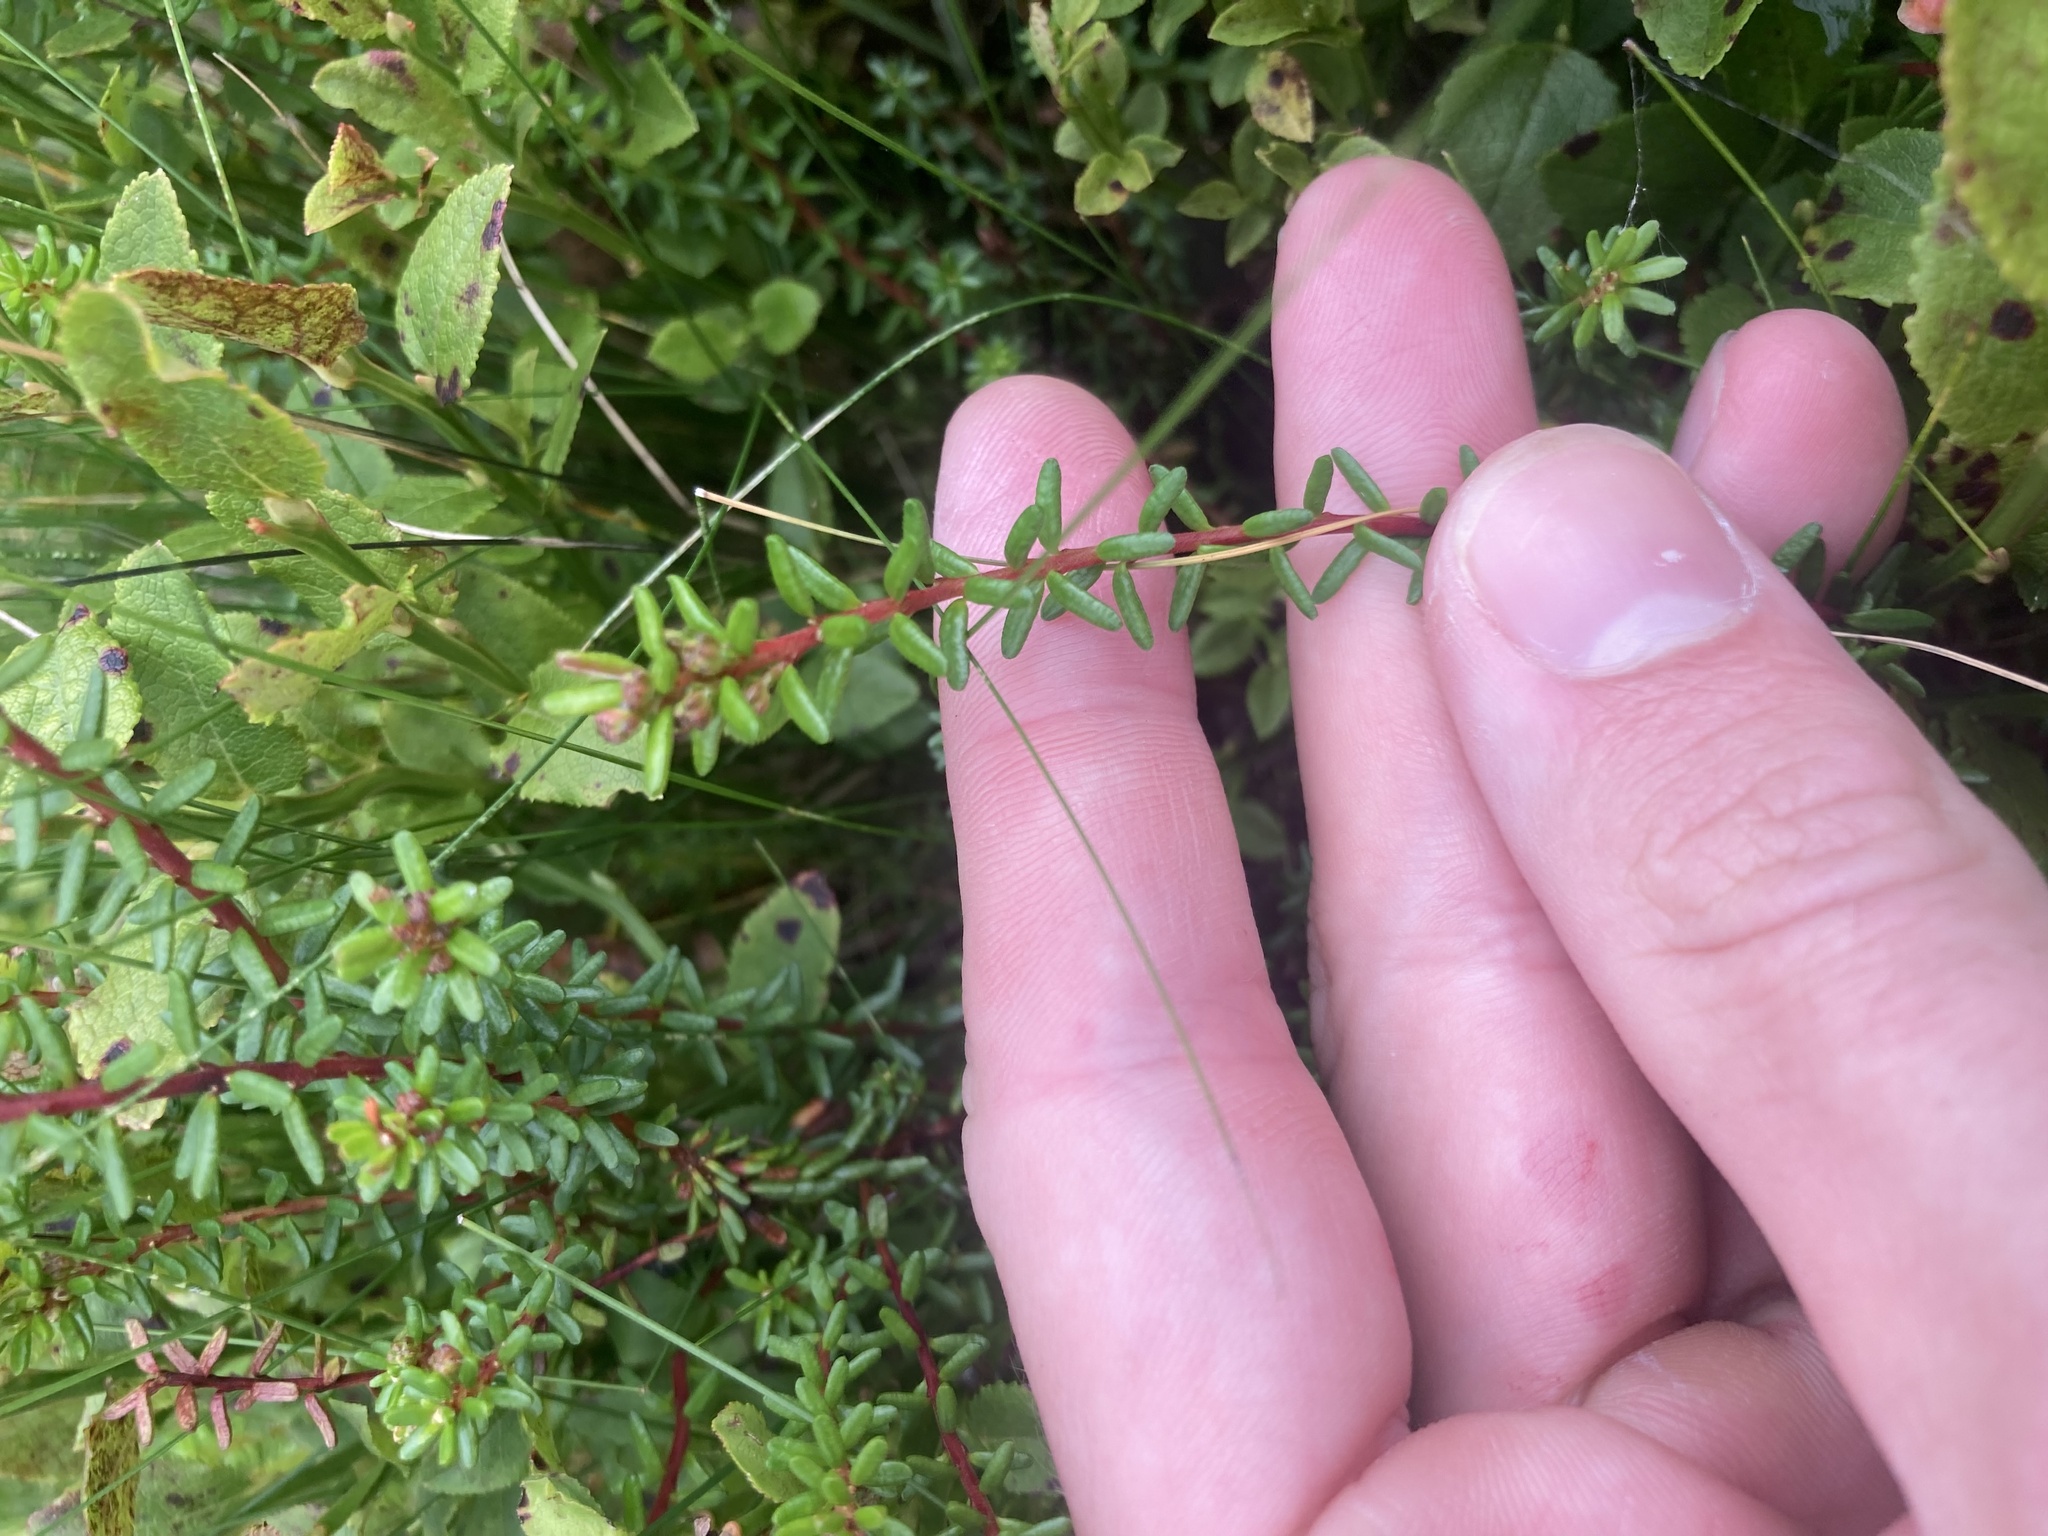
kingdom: Plantae
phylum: Tracheophyta
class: Magnoliopsida
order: Ericales
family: Ericaceae
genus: Empetrum
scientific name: Empetrum nigrum
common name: Black crowberry
